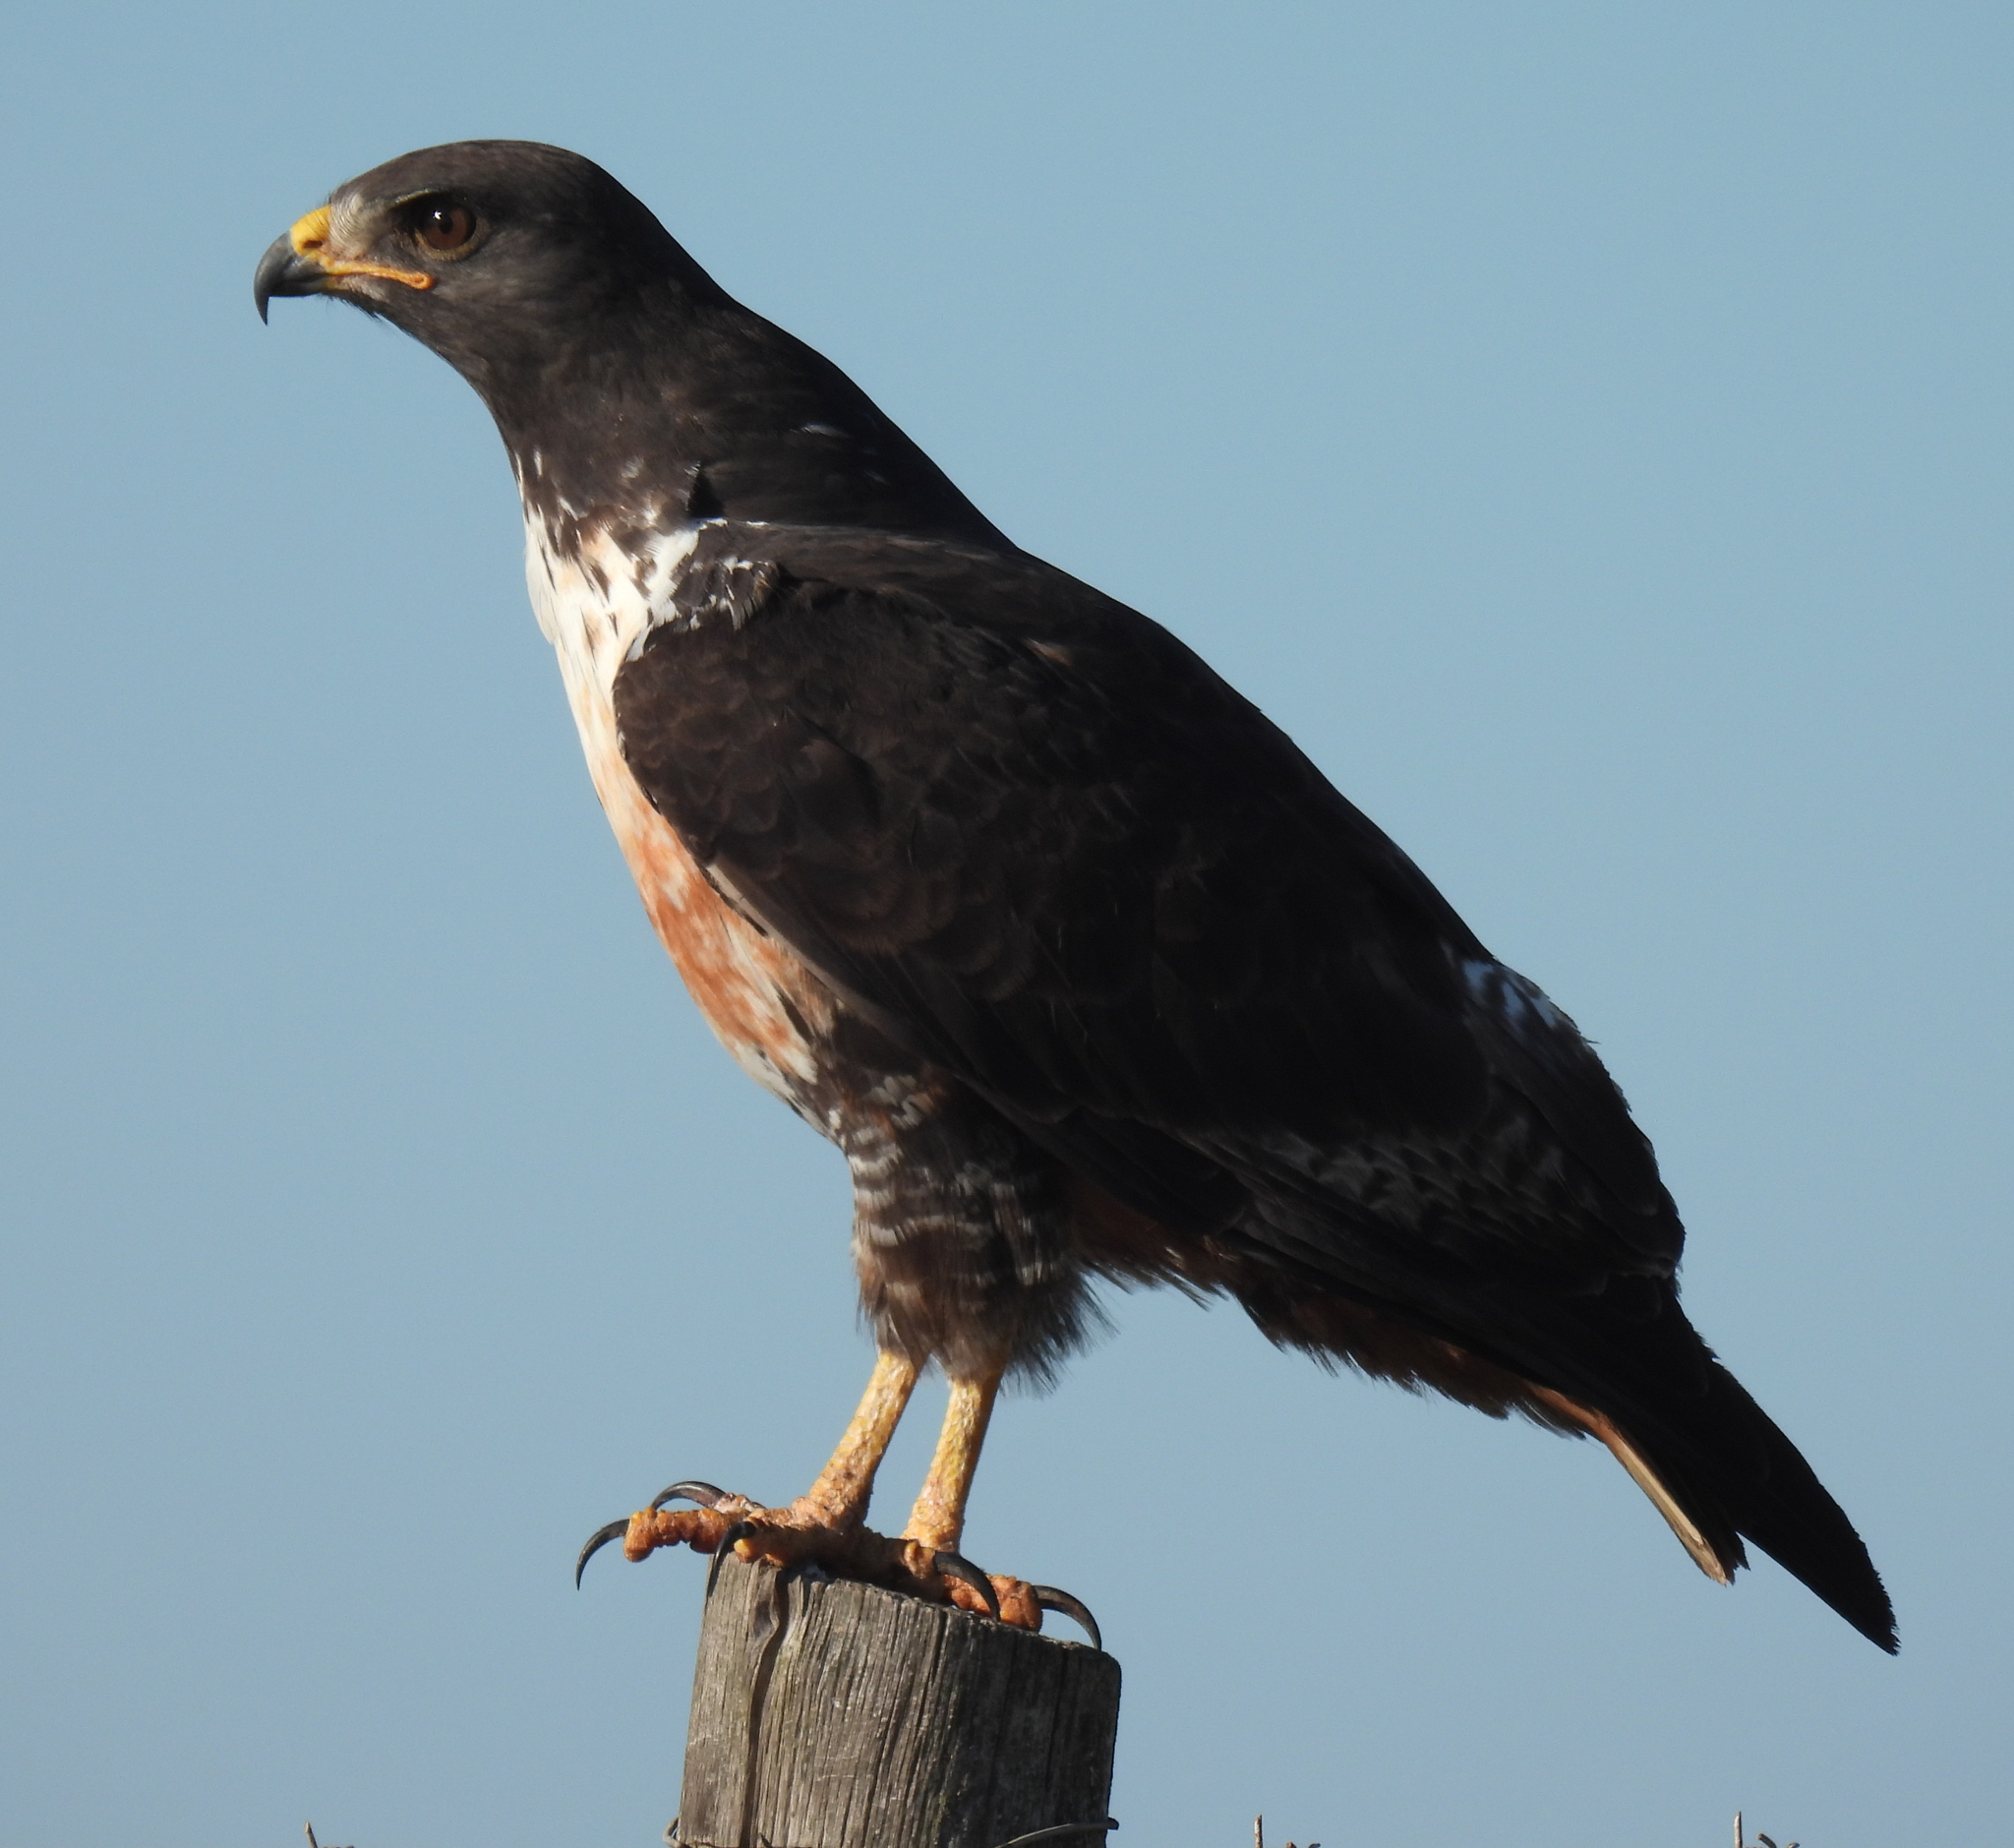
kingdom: Animalia
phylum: Chordata
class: Aves
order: Accipitriformes
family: Accipitridae
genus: Buteo
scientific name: Buteo rufofuscus
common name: Jackal buzzard
